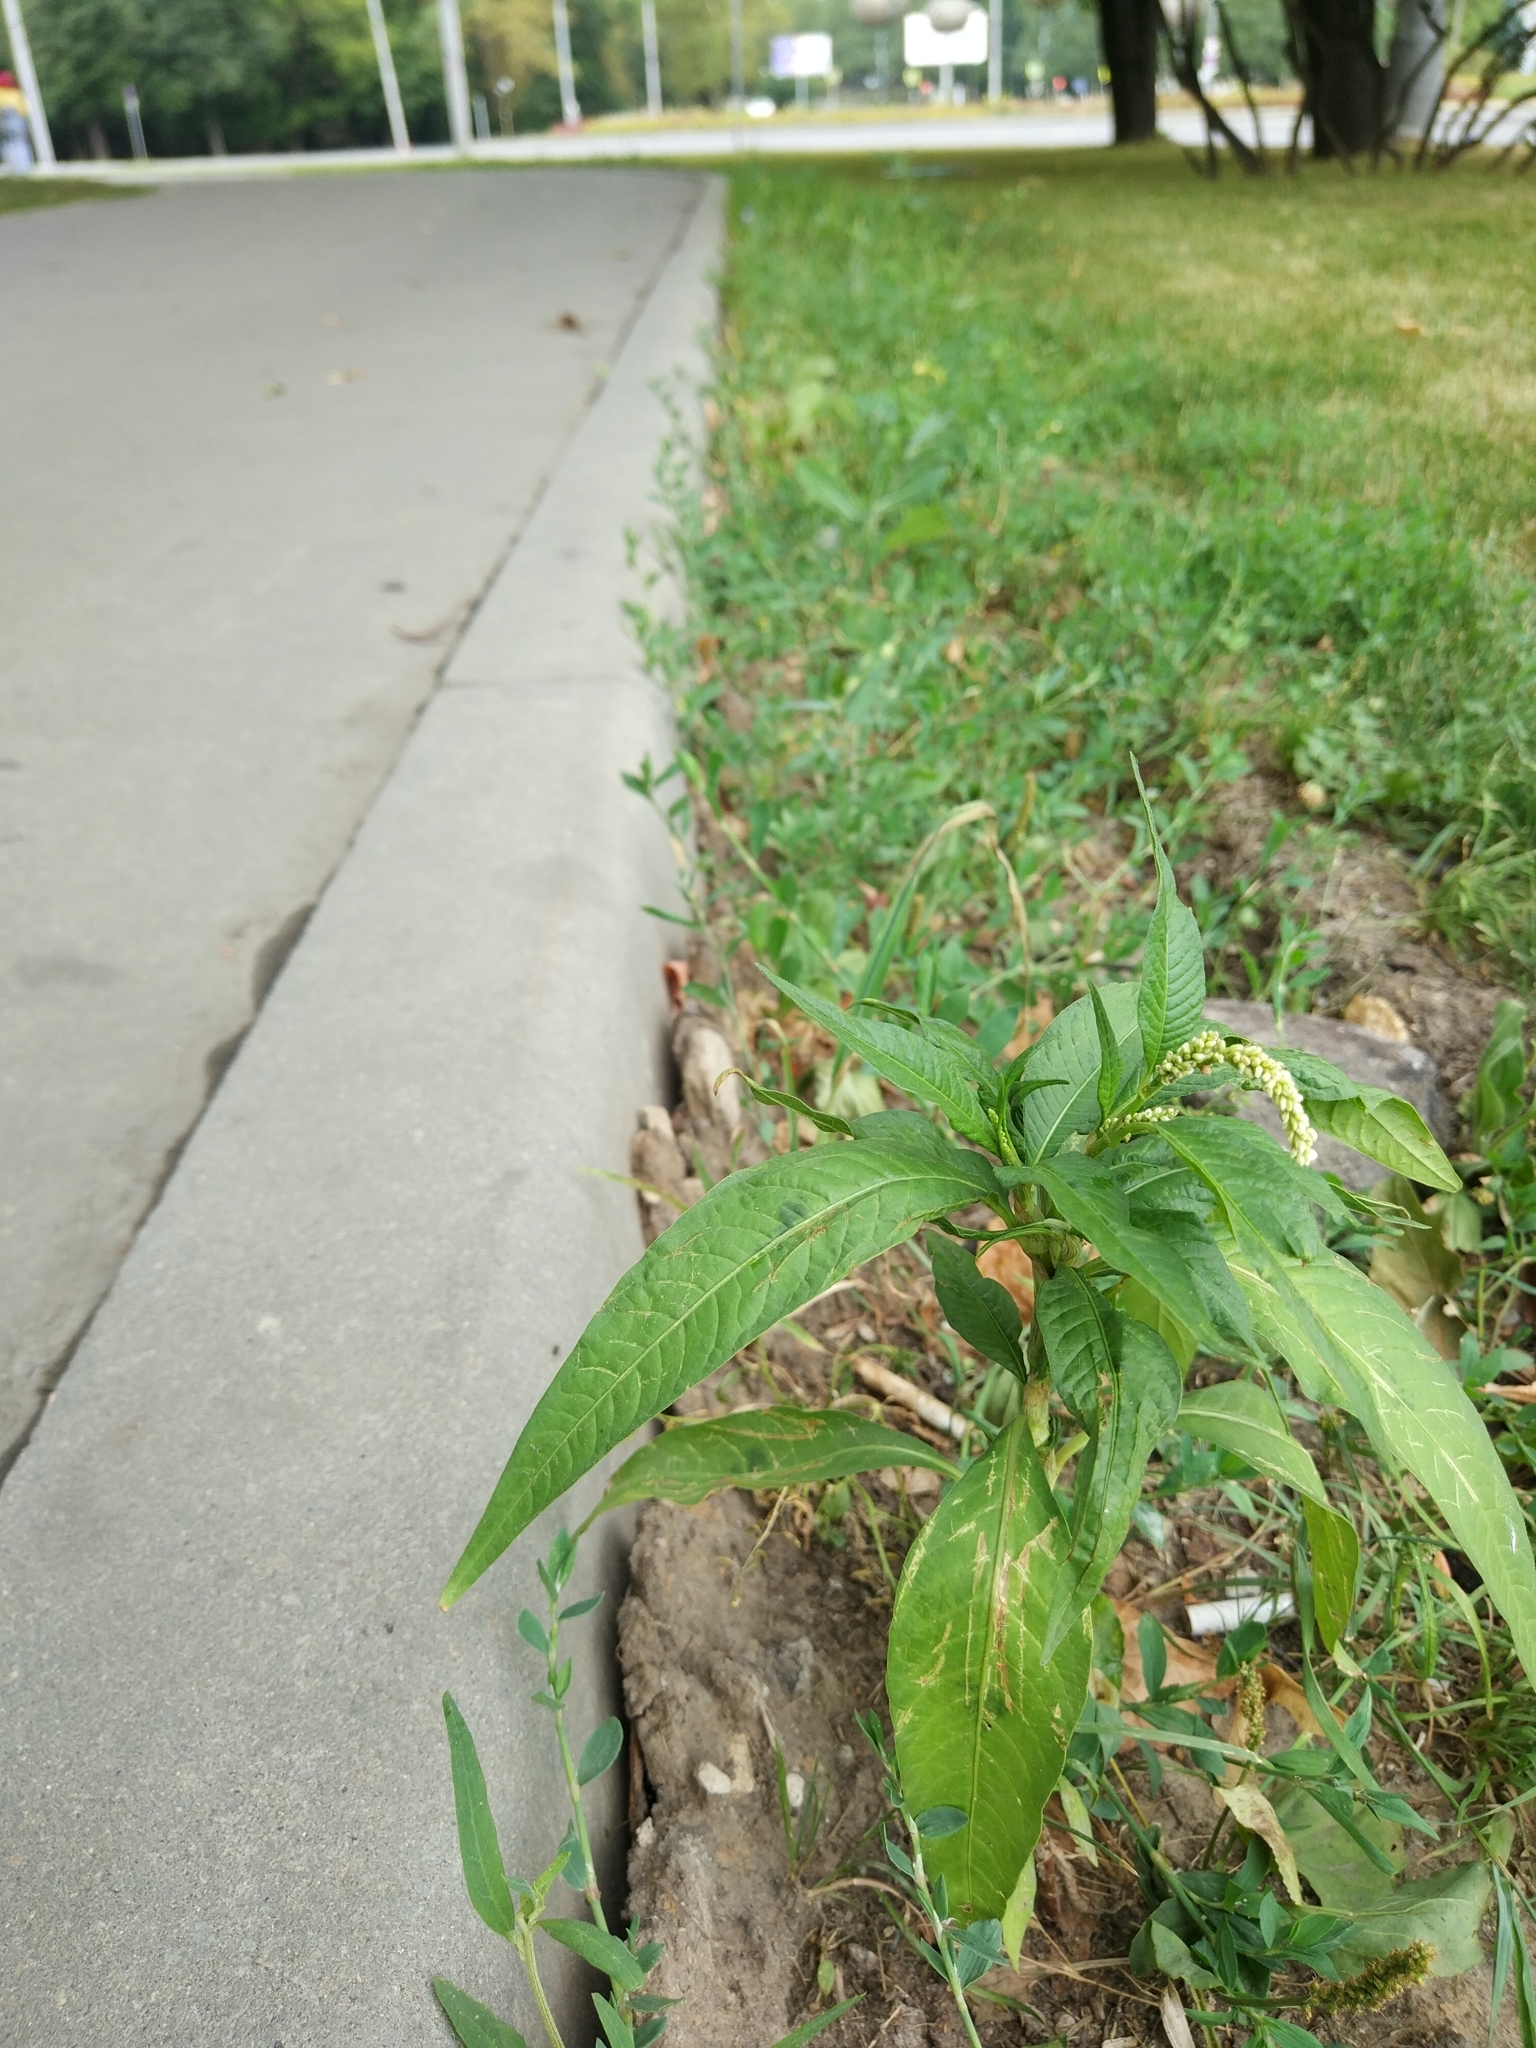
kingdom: Plantae
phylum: Tracheophyta
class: Magnoliopsida
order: Caryophyllales
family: Polygonaceae
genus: Persicaria
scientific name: Persicaria lapathifolia
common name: Curlytop knotweed
